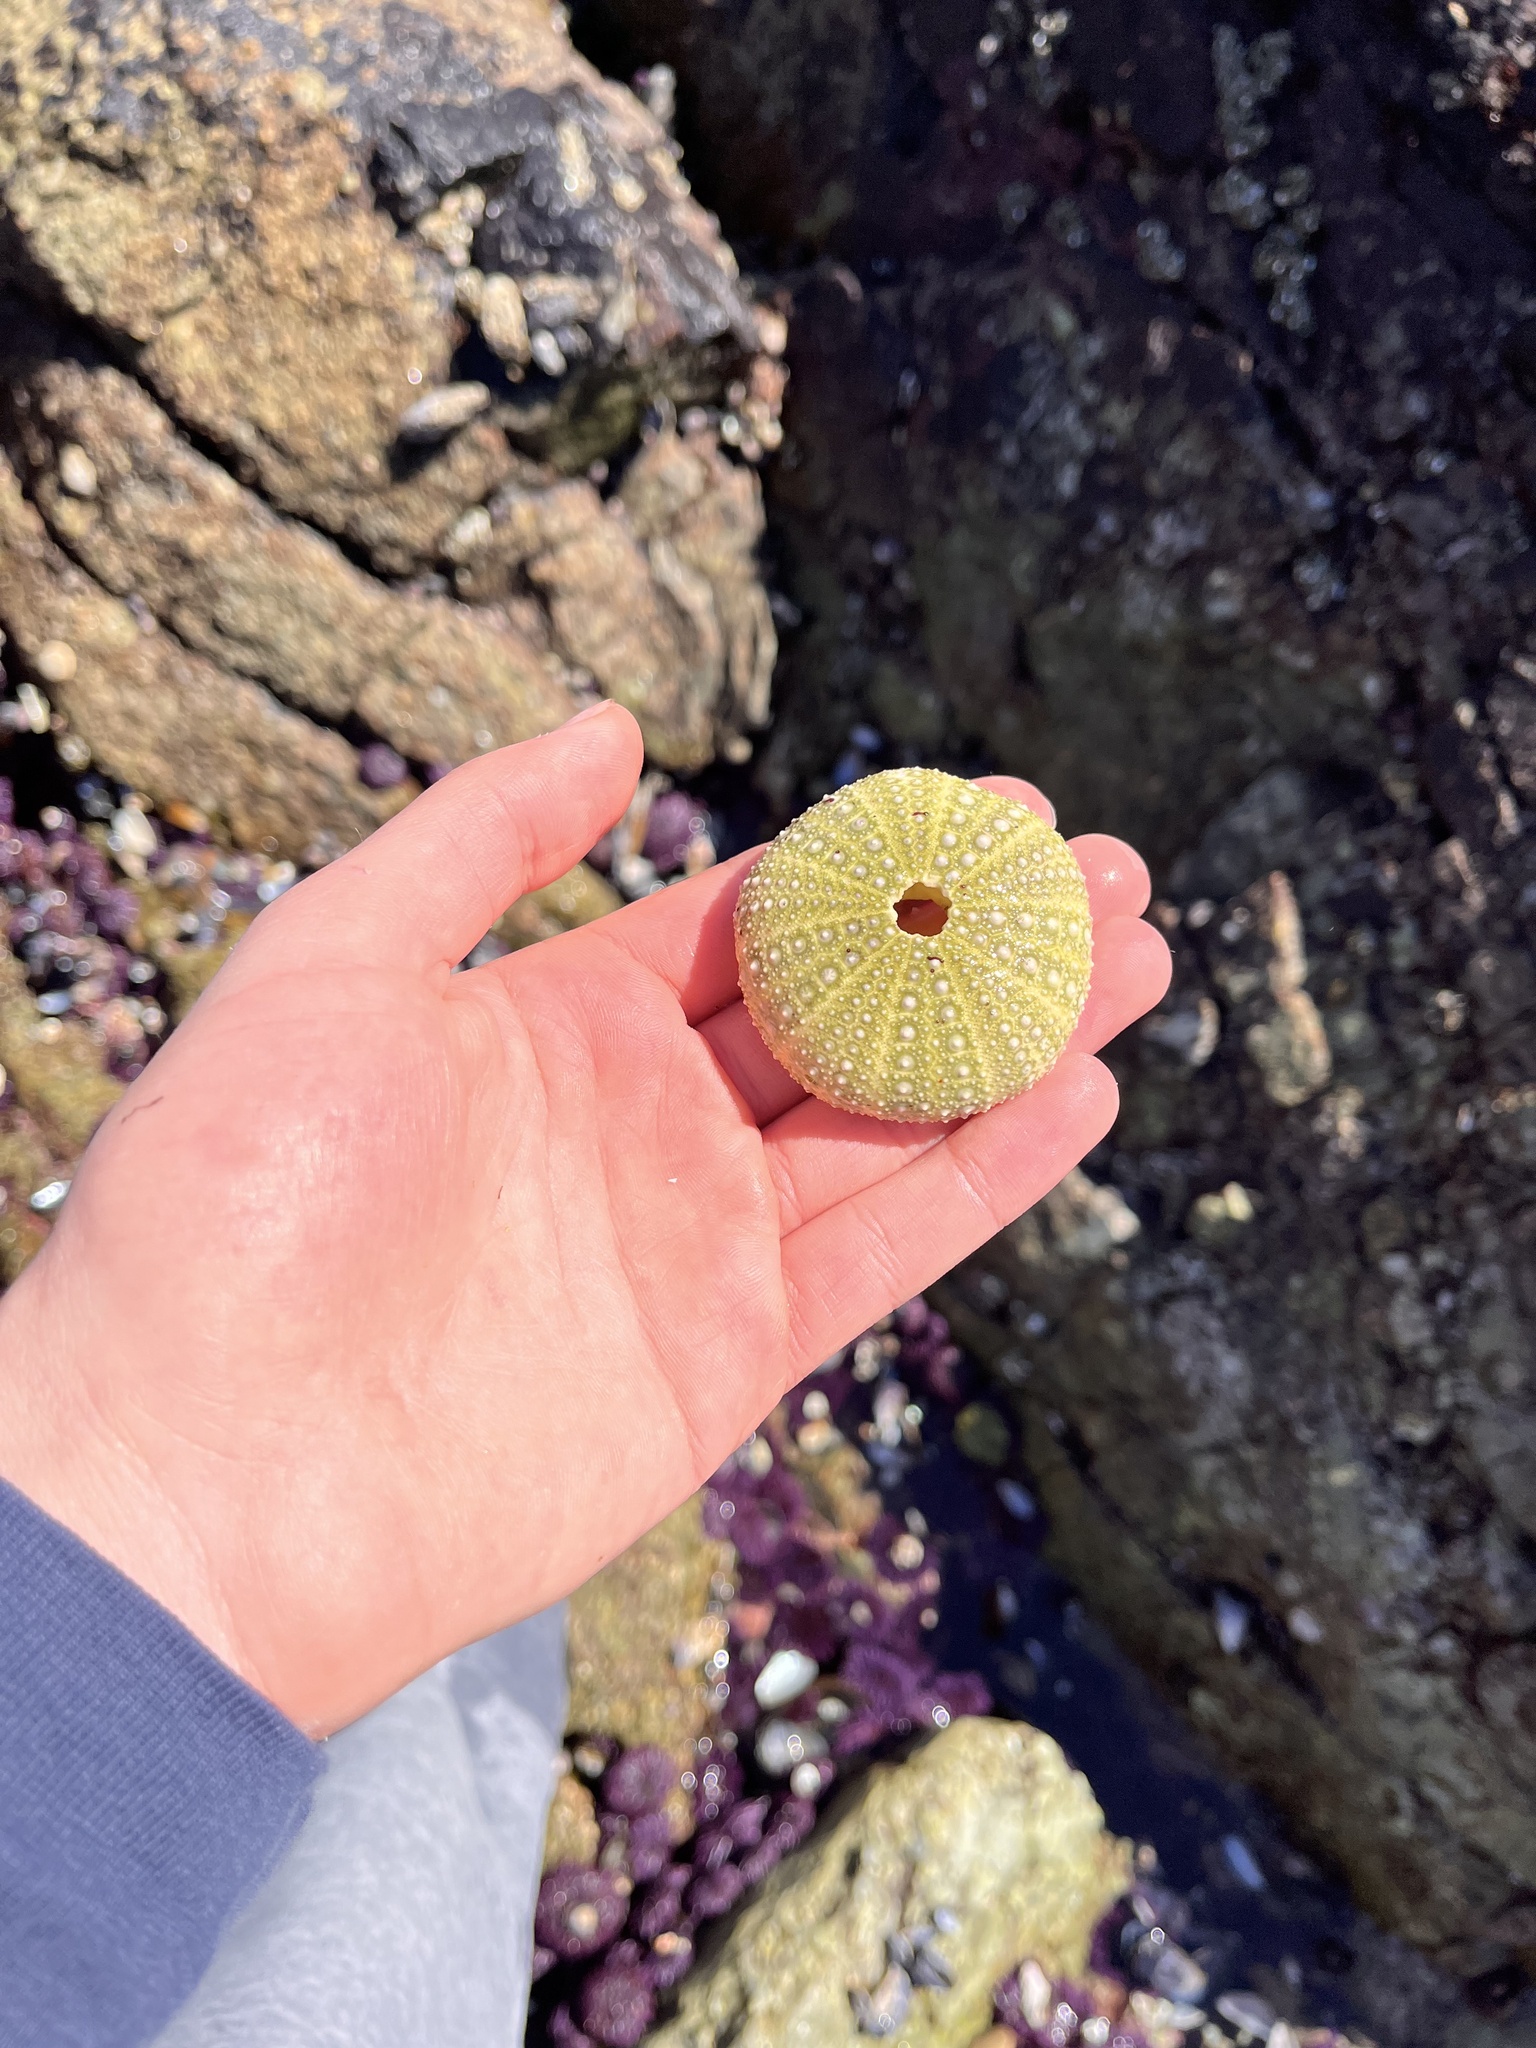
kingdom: Animalia
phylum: Echinodermata
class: Echinoidea
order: Camarodonta
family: Strongylocentrotidae
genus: Strongylocentrotus
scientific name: Strongylocentrotus purpuratus
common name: Purple sea urchin
